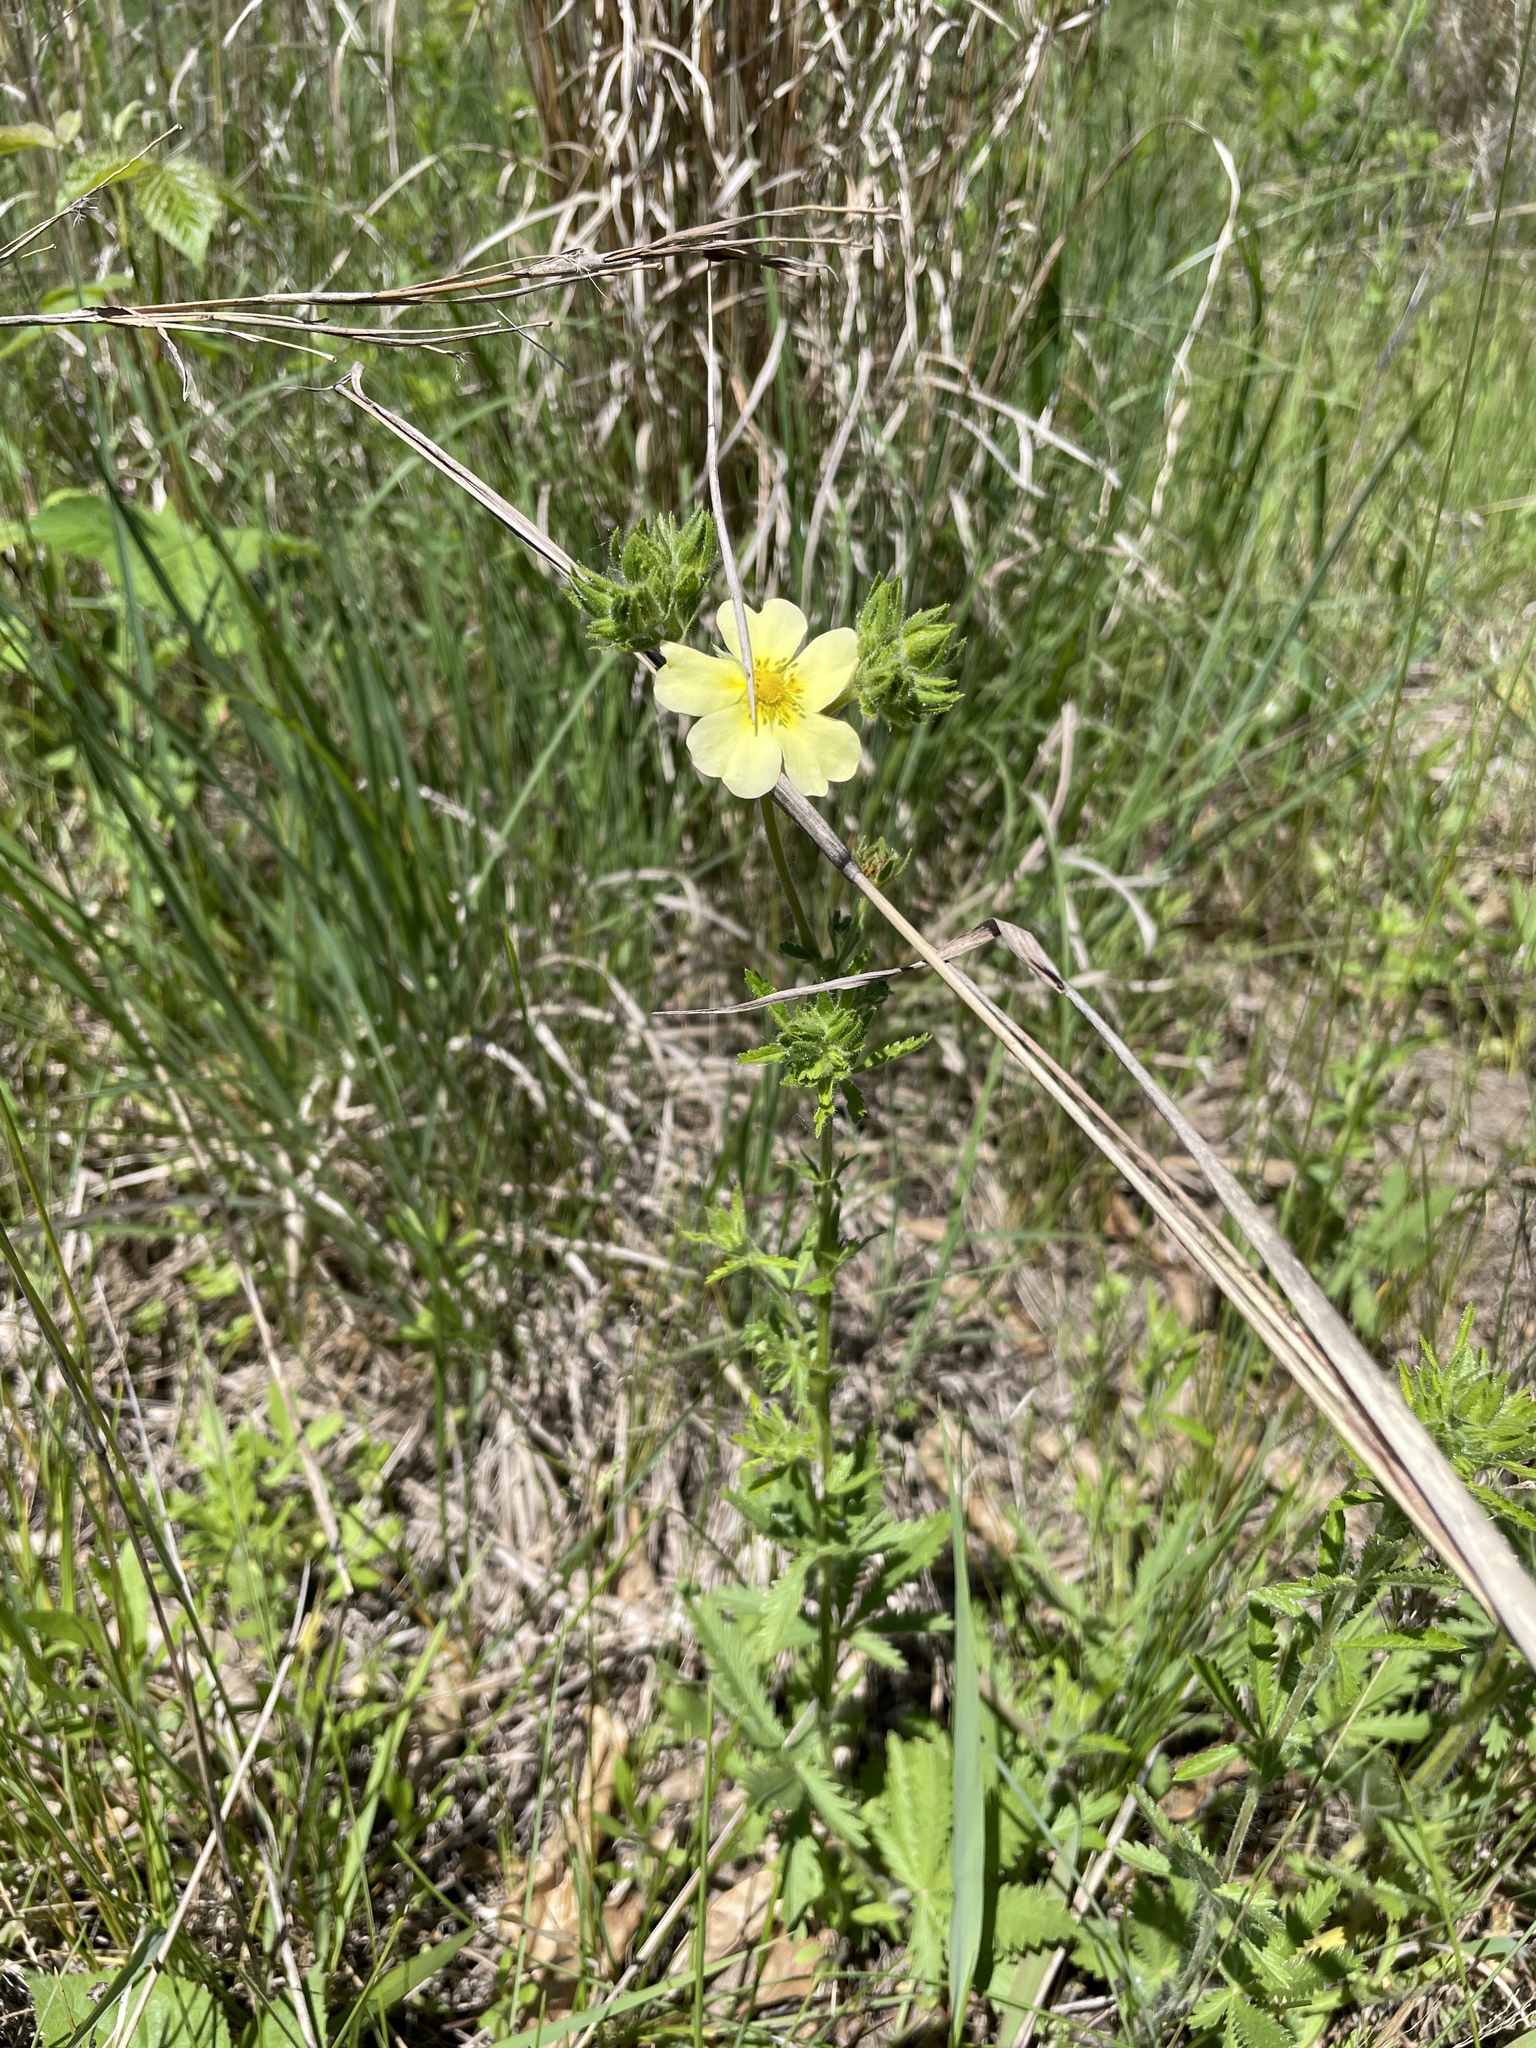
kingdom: Plantae
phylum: Tracheophyta
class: Magnoliopsida
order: Rosales
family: Rosaceae
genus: Potentilla
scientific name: Potentilla recta
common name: Sulphur cinquefoil
